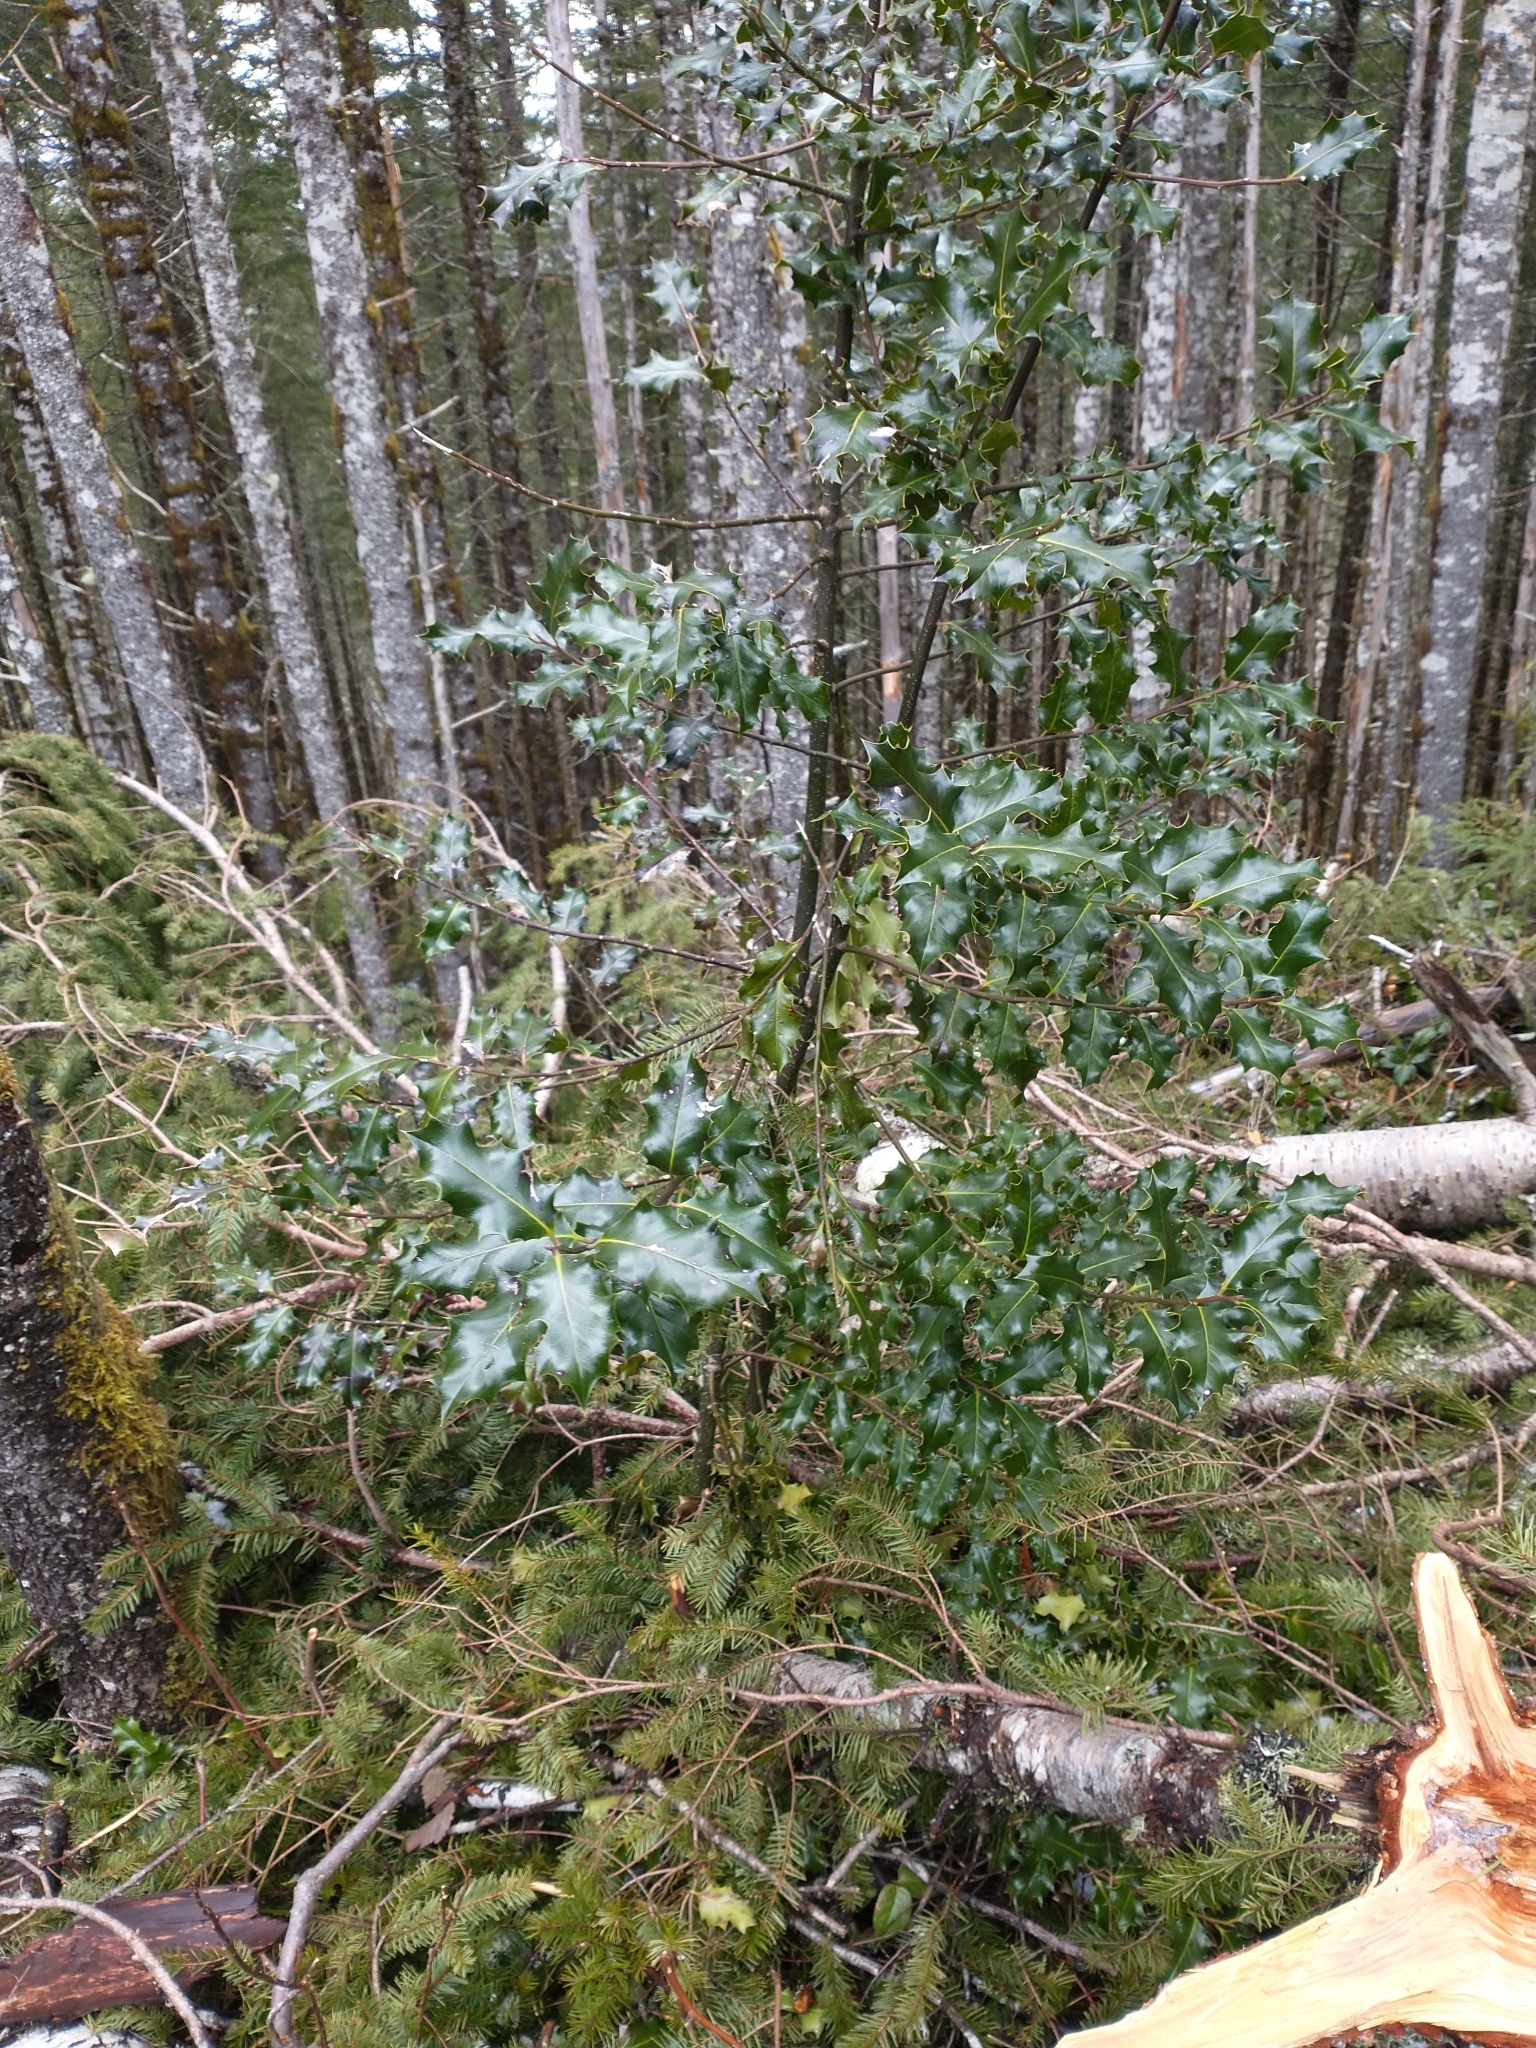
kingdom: Plantae
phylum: Tracheophyta
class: Magnoliopsida
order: Aquifoliales
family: Aquifoliaceae
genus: Ilex
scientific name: Ilex aquifolium
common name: English holly
